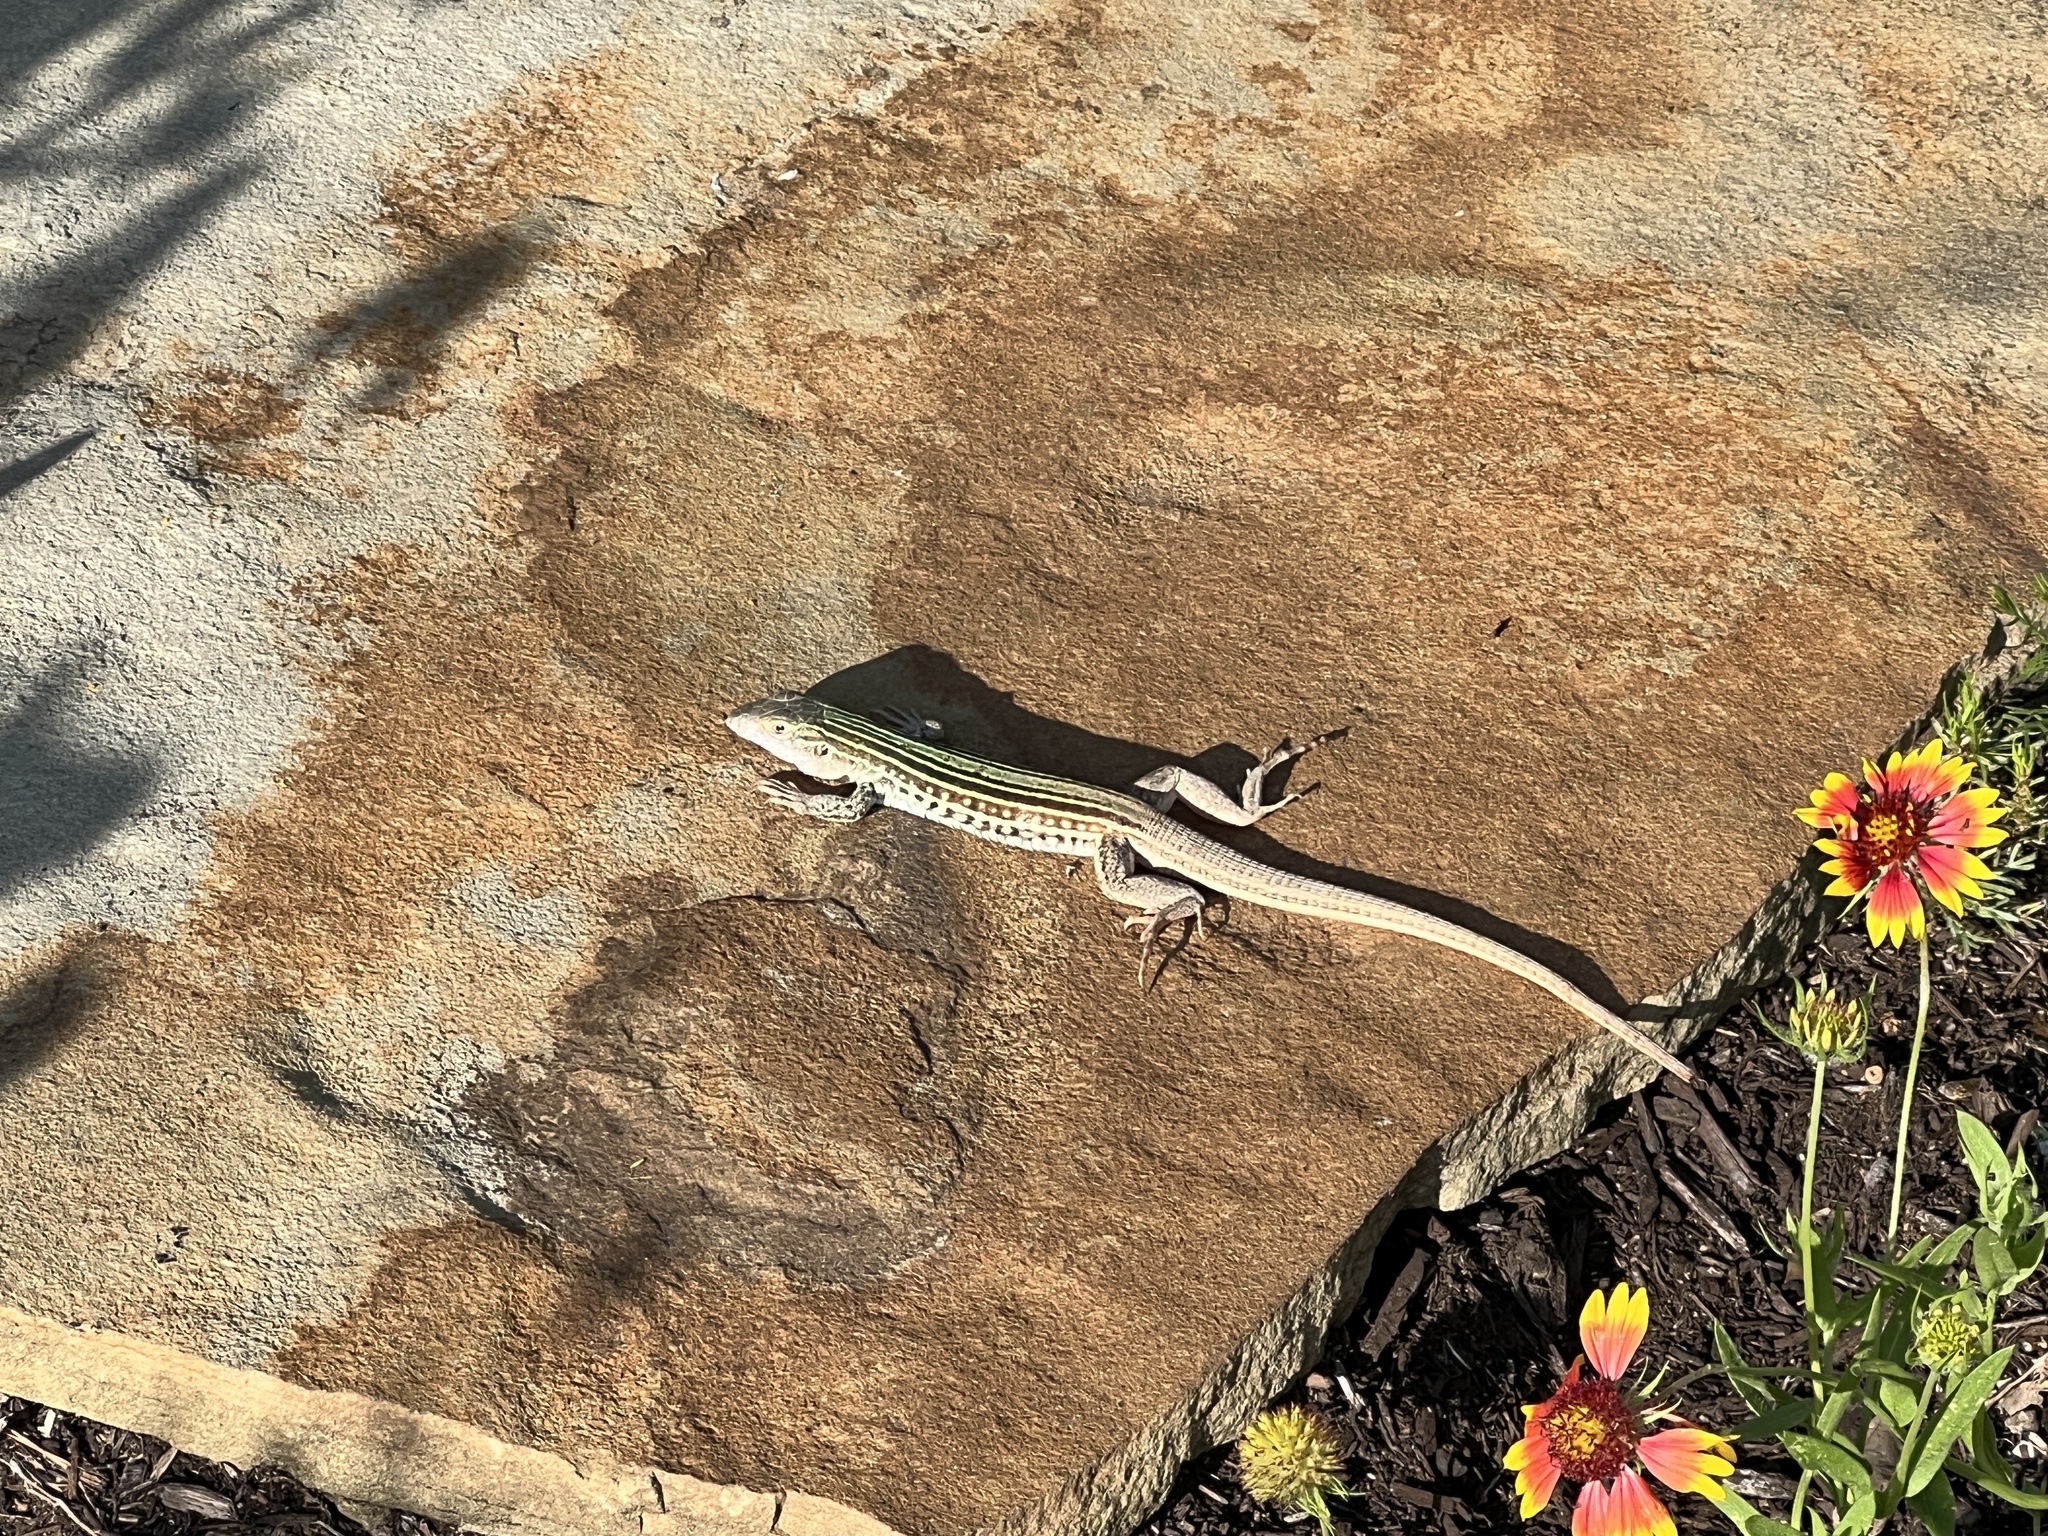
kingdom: Animalia
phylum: Chordata
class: Squamata
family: Teiidae
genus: Aspidoscelis
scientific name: Aspidoscelis gularis
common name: Eastern spotted whiptail
